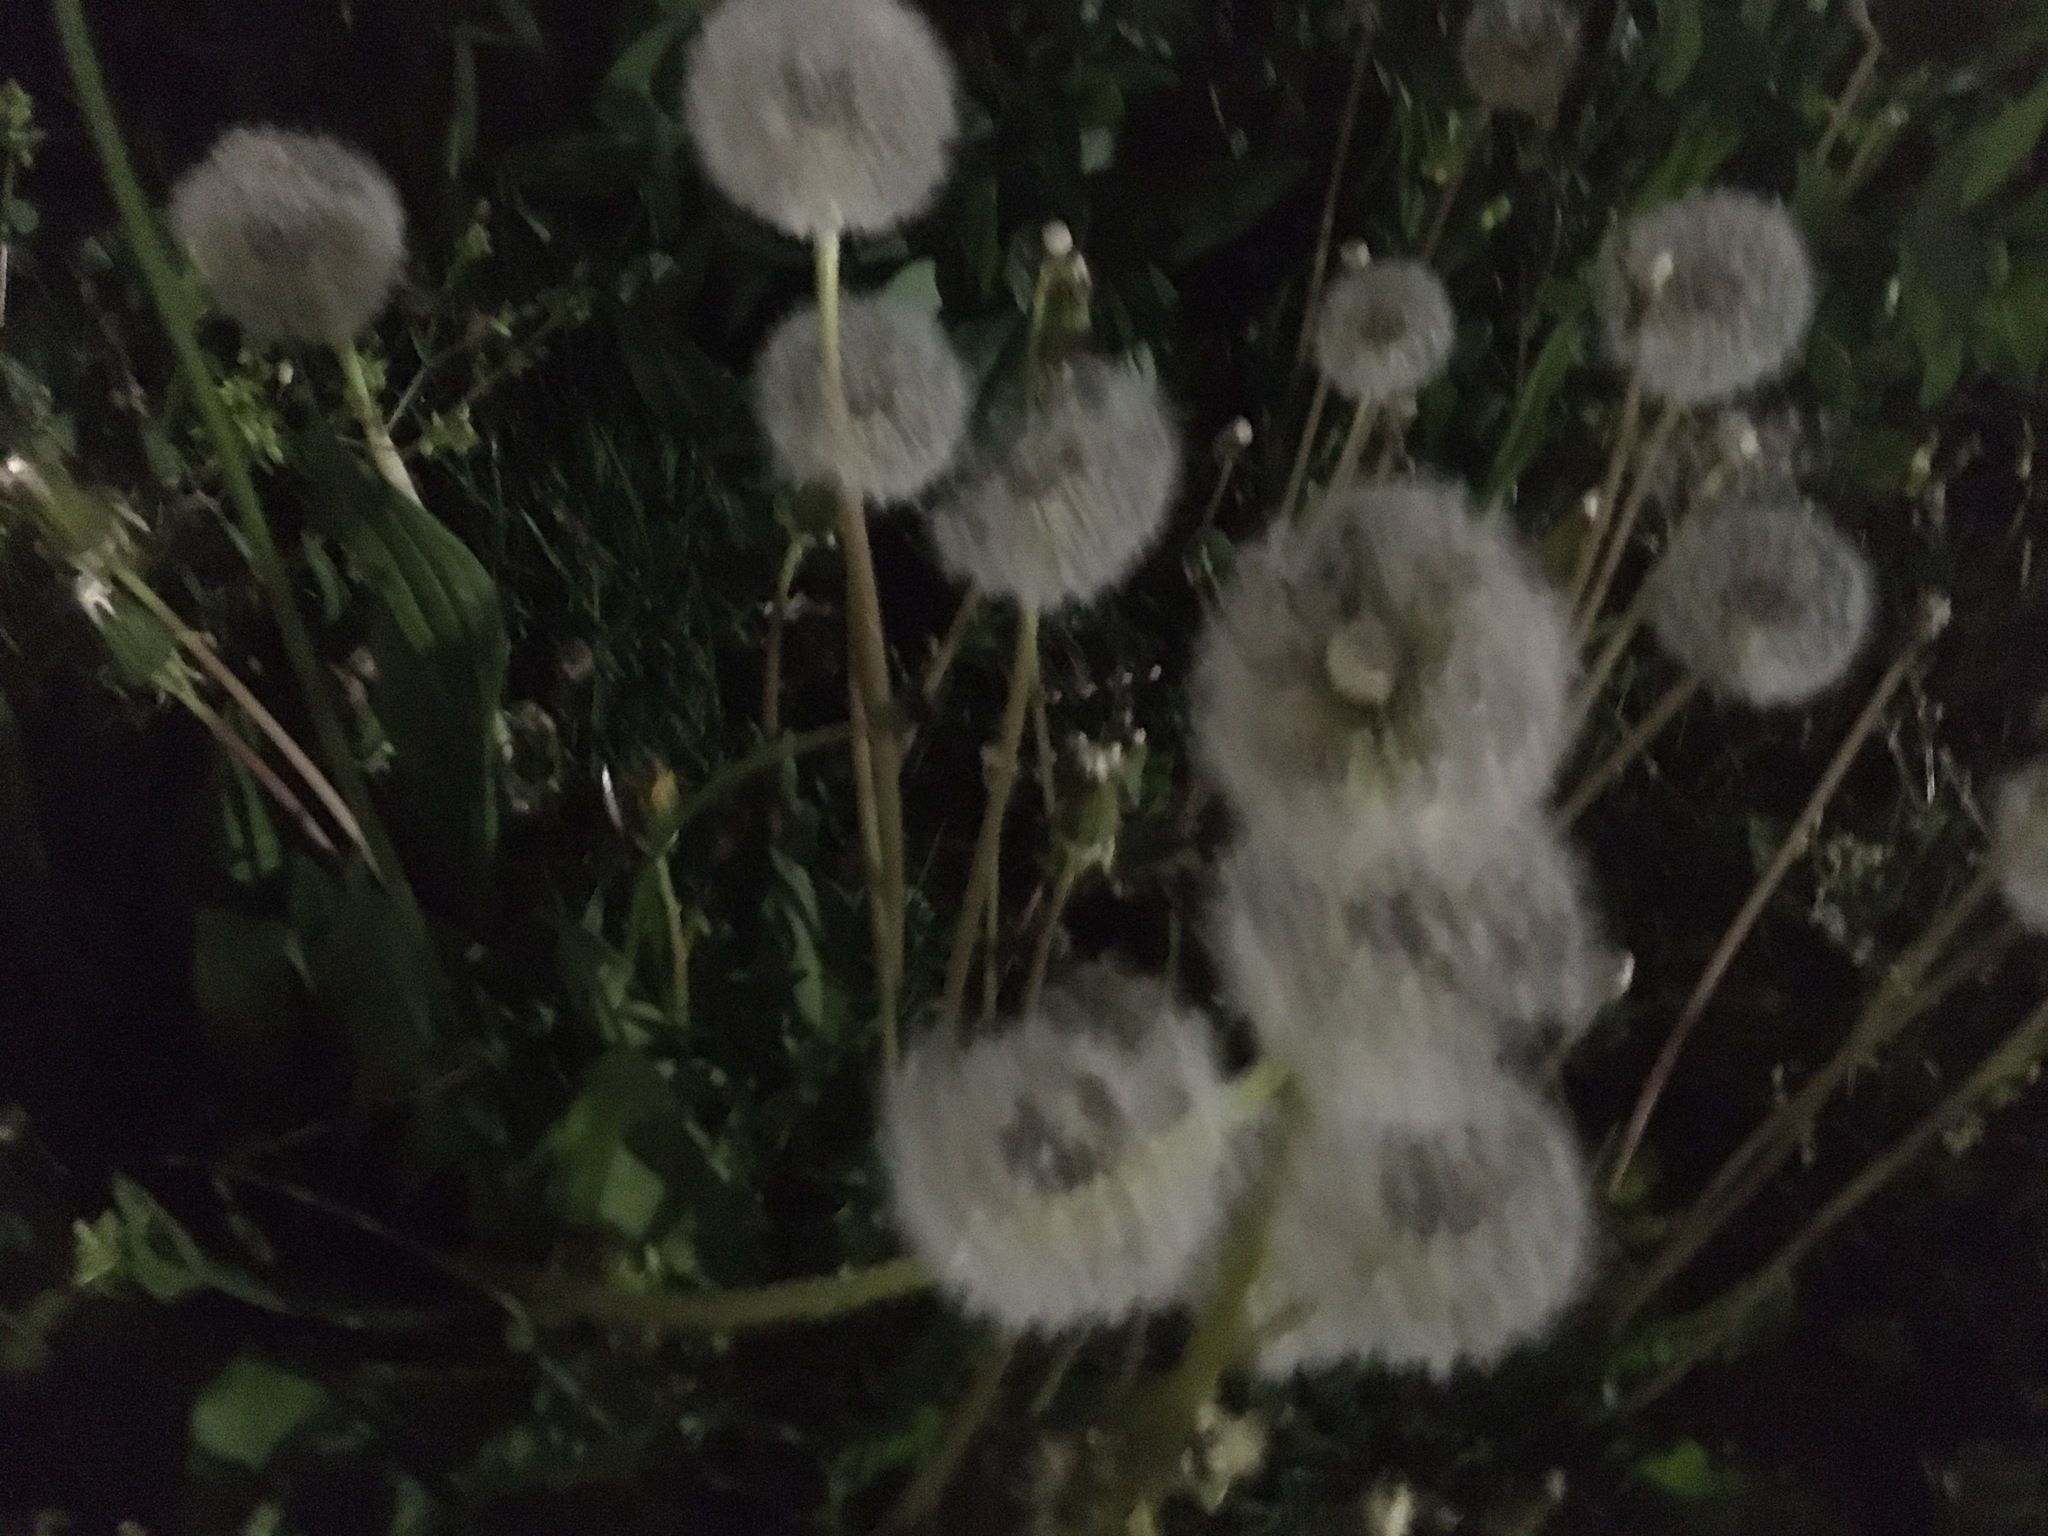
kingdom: Plantae
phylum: Tracheophyta
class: Magnoliopsida
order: Asterales
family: Asteraceae
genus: Taraxacum
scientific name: Taraxacum officinale
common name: Common dandelion
